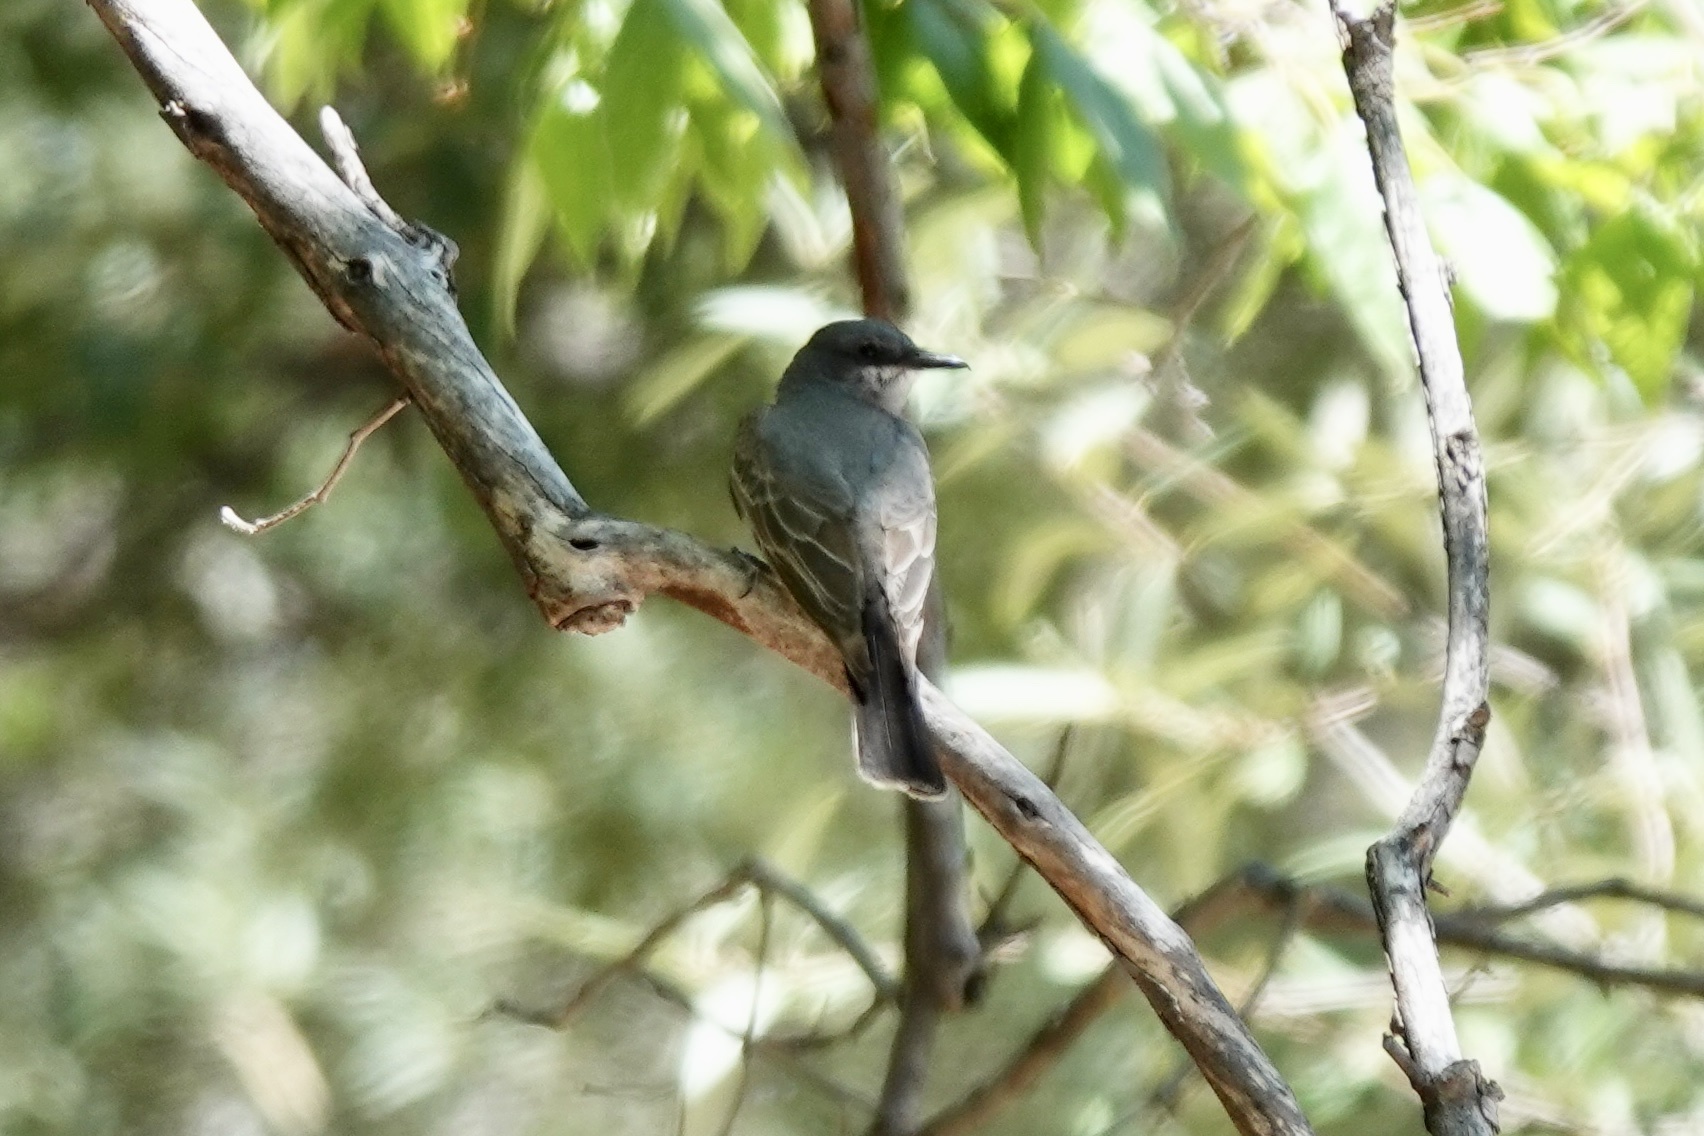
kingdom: Animalia
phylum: Chordata
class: Aves
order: Passeriformes
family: Tyrannidae
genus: Tyrannus
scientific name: Tyrannus vociferans
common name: Cassin's kingbird
